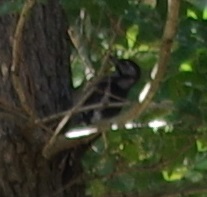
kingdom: Animalia
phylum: Chordata
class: Aves
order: Piciformes
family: Picidae
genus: Dendrocopos
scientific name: Dendrocopos major
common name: Great spotted woodpecker
